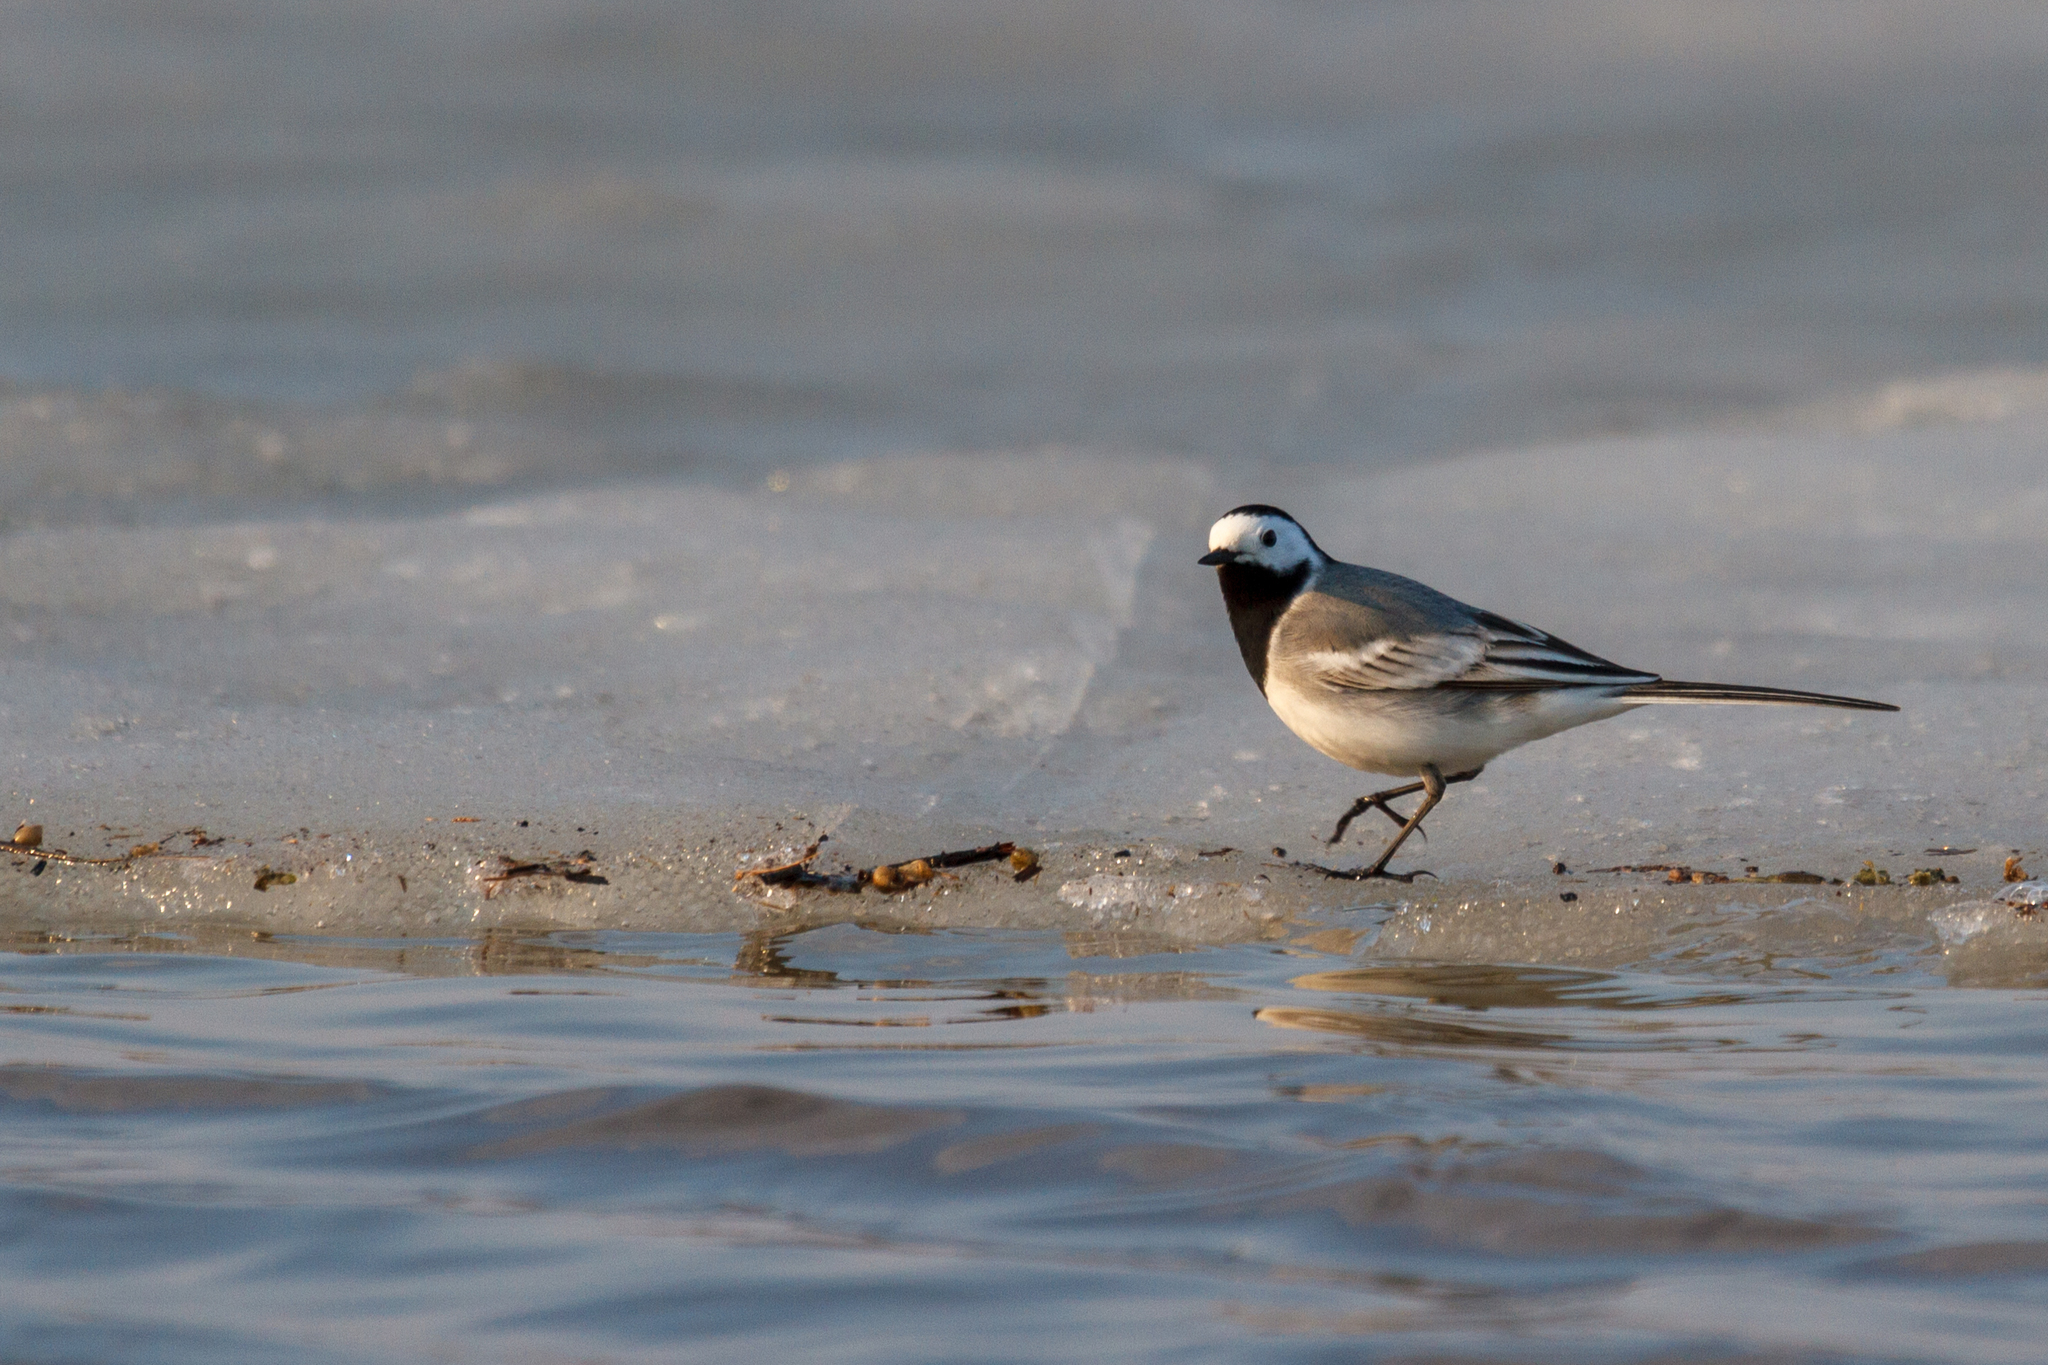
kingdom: Animalia
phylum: Chordata
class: Aves
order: Passeriformes
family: Motacillidae
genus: Motacilla
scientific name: Motacilla alba
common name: White wagtail
